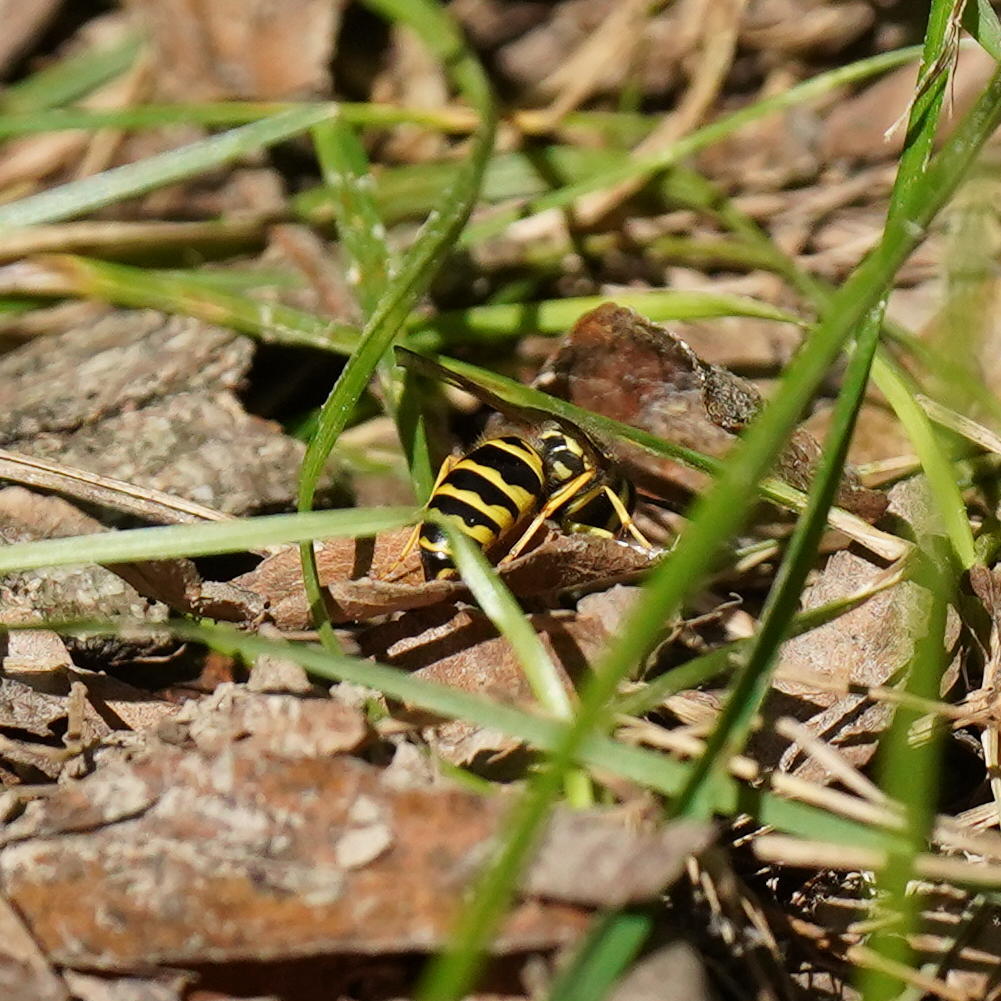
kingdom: Animalia
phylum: Arthropoda
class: Insecta
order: Hymenoptera
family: Vespidae
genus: Vespula
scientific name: Vespula maculifrons
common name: Eastern yellowjacket
